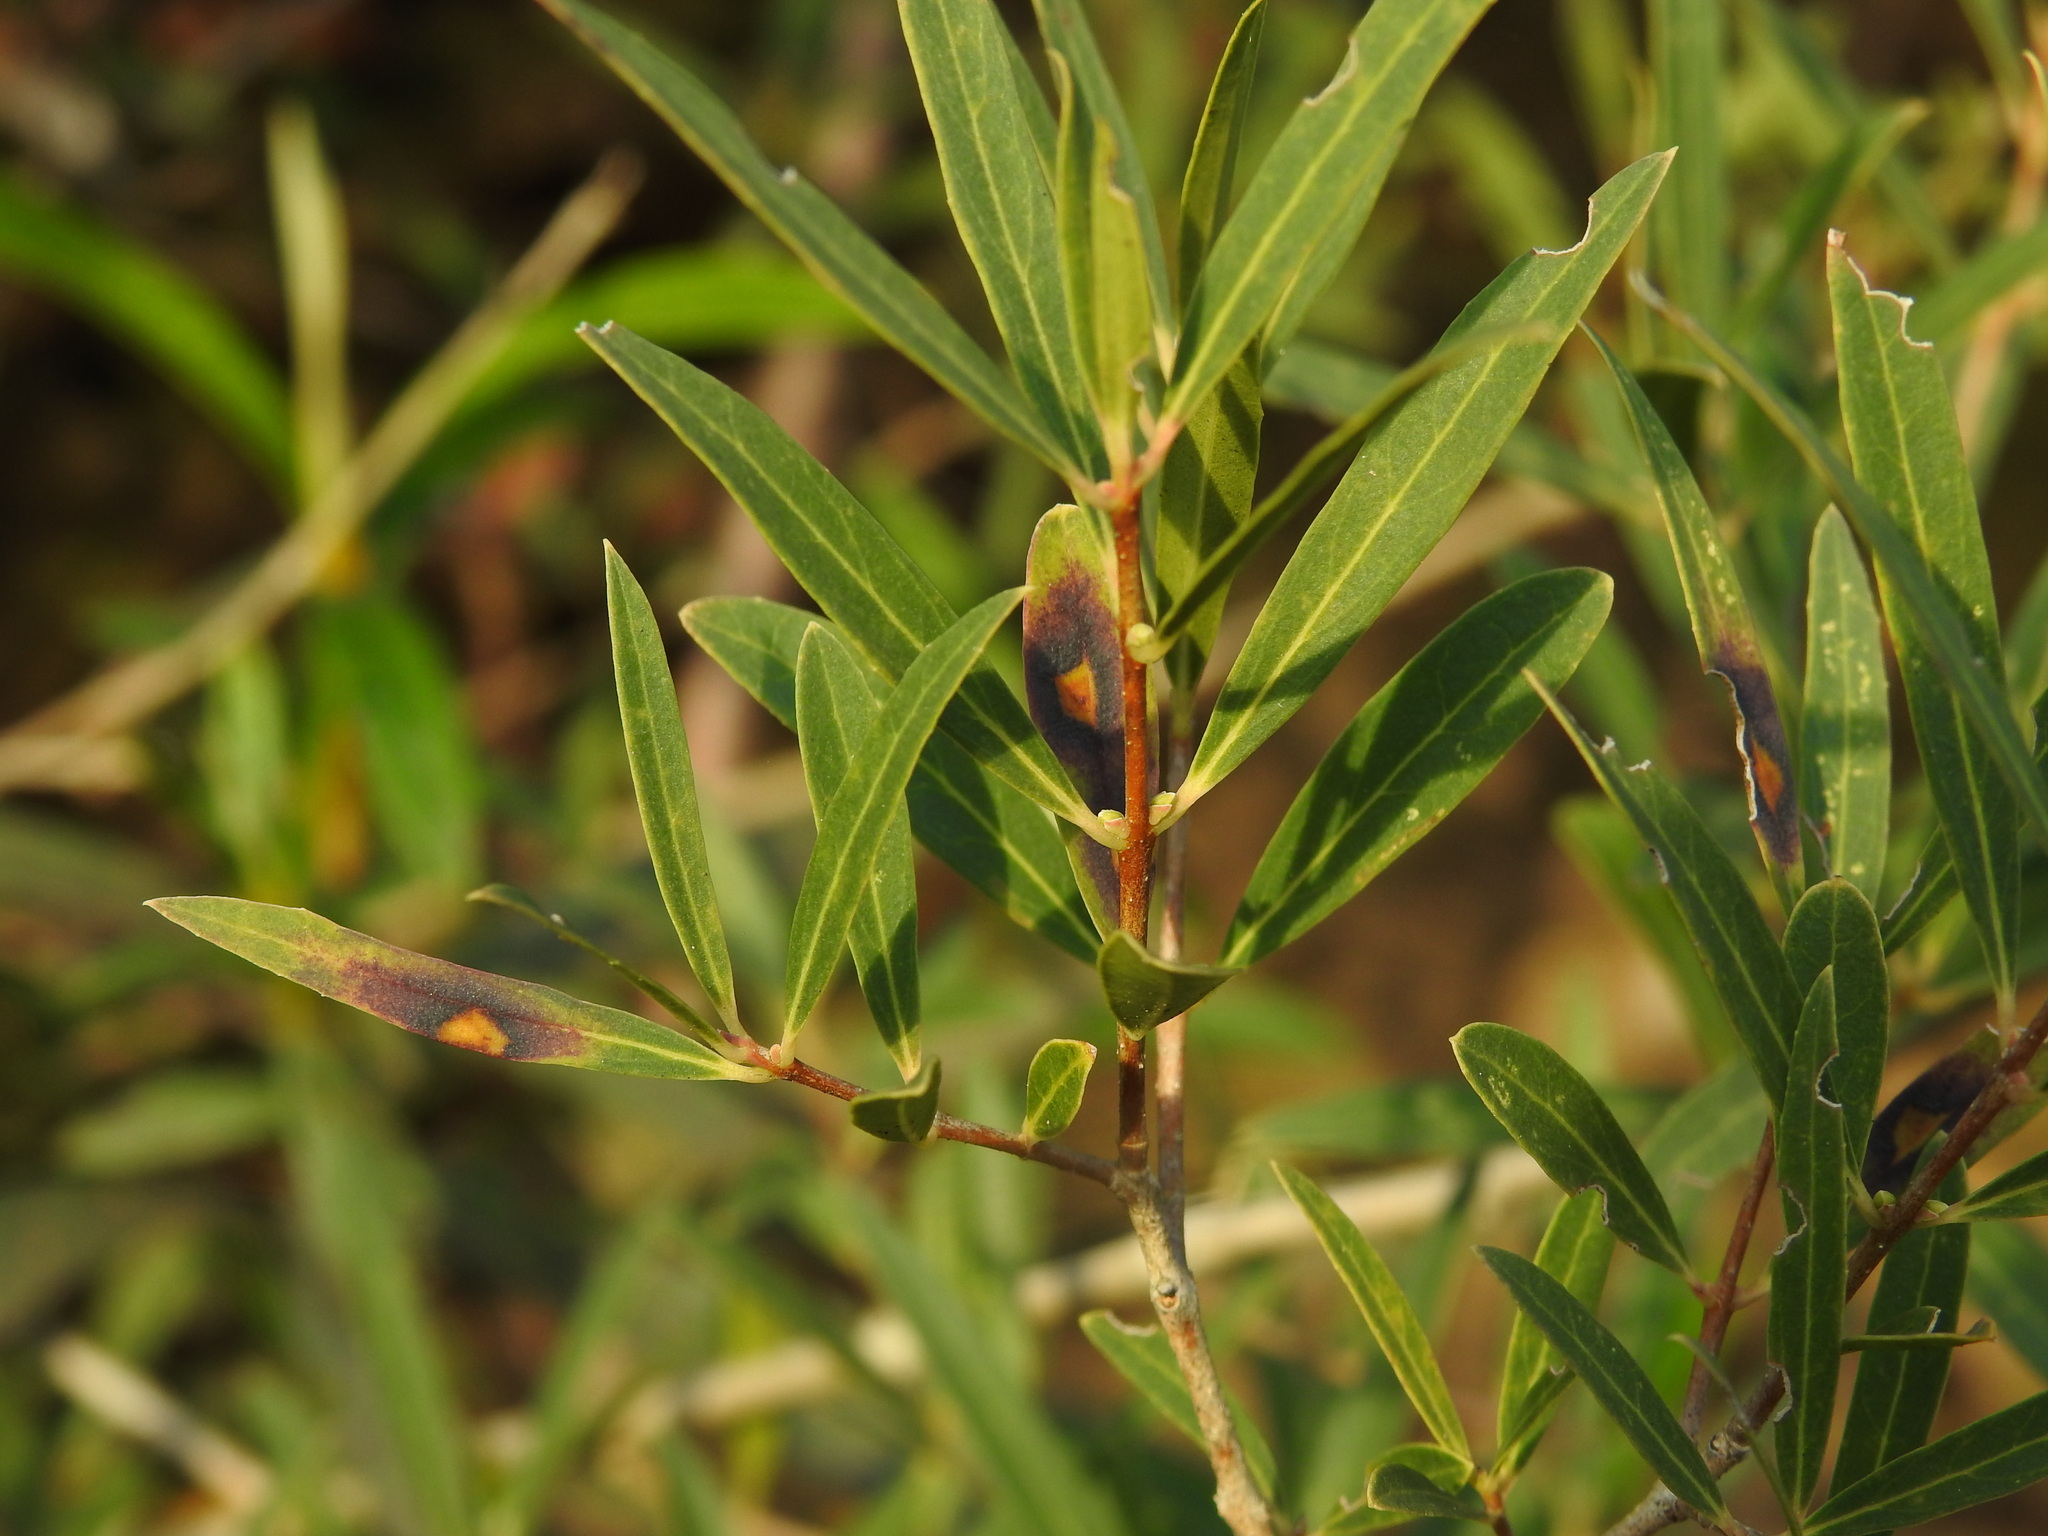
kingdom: Animalia
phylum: Arthropoda
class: Insecta
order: Diptera
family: Cecidomyiidae
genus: Braueriella
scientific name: Braueriella phillyreae
